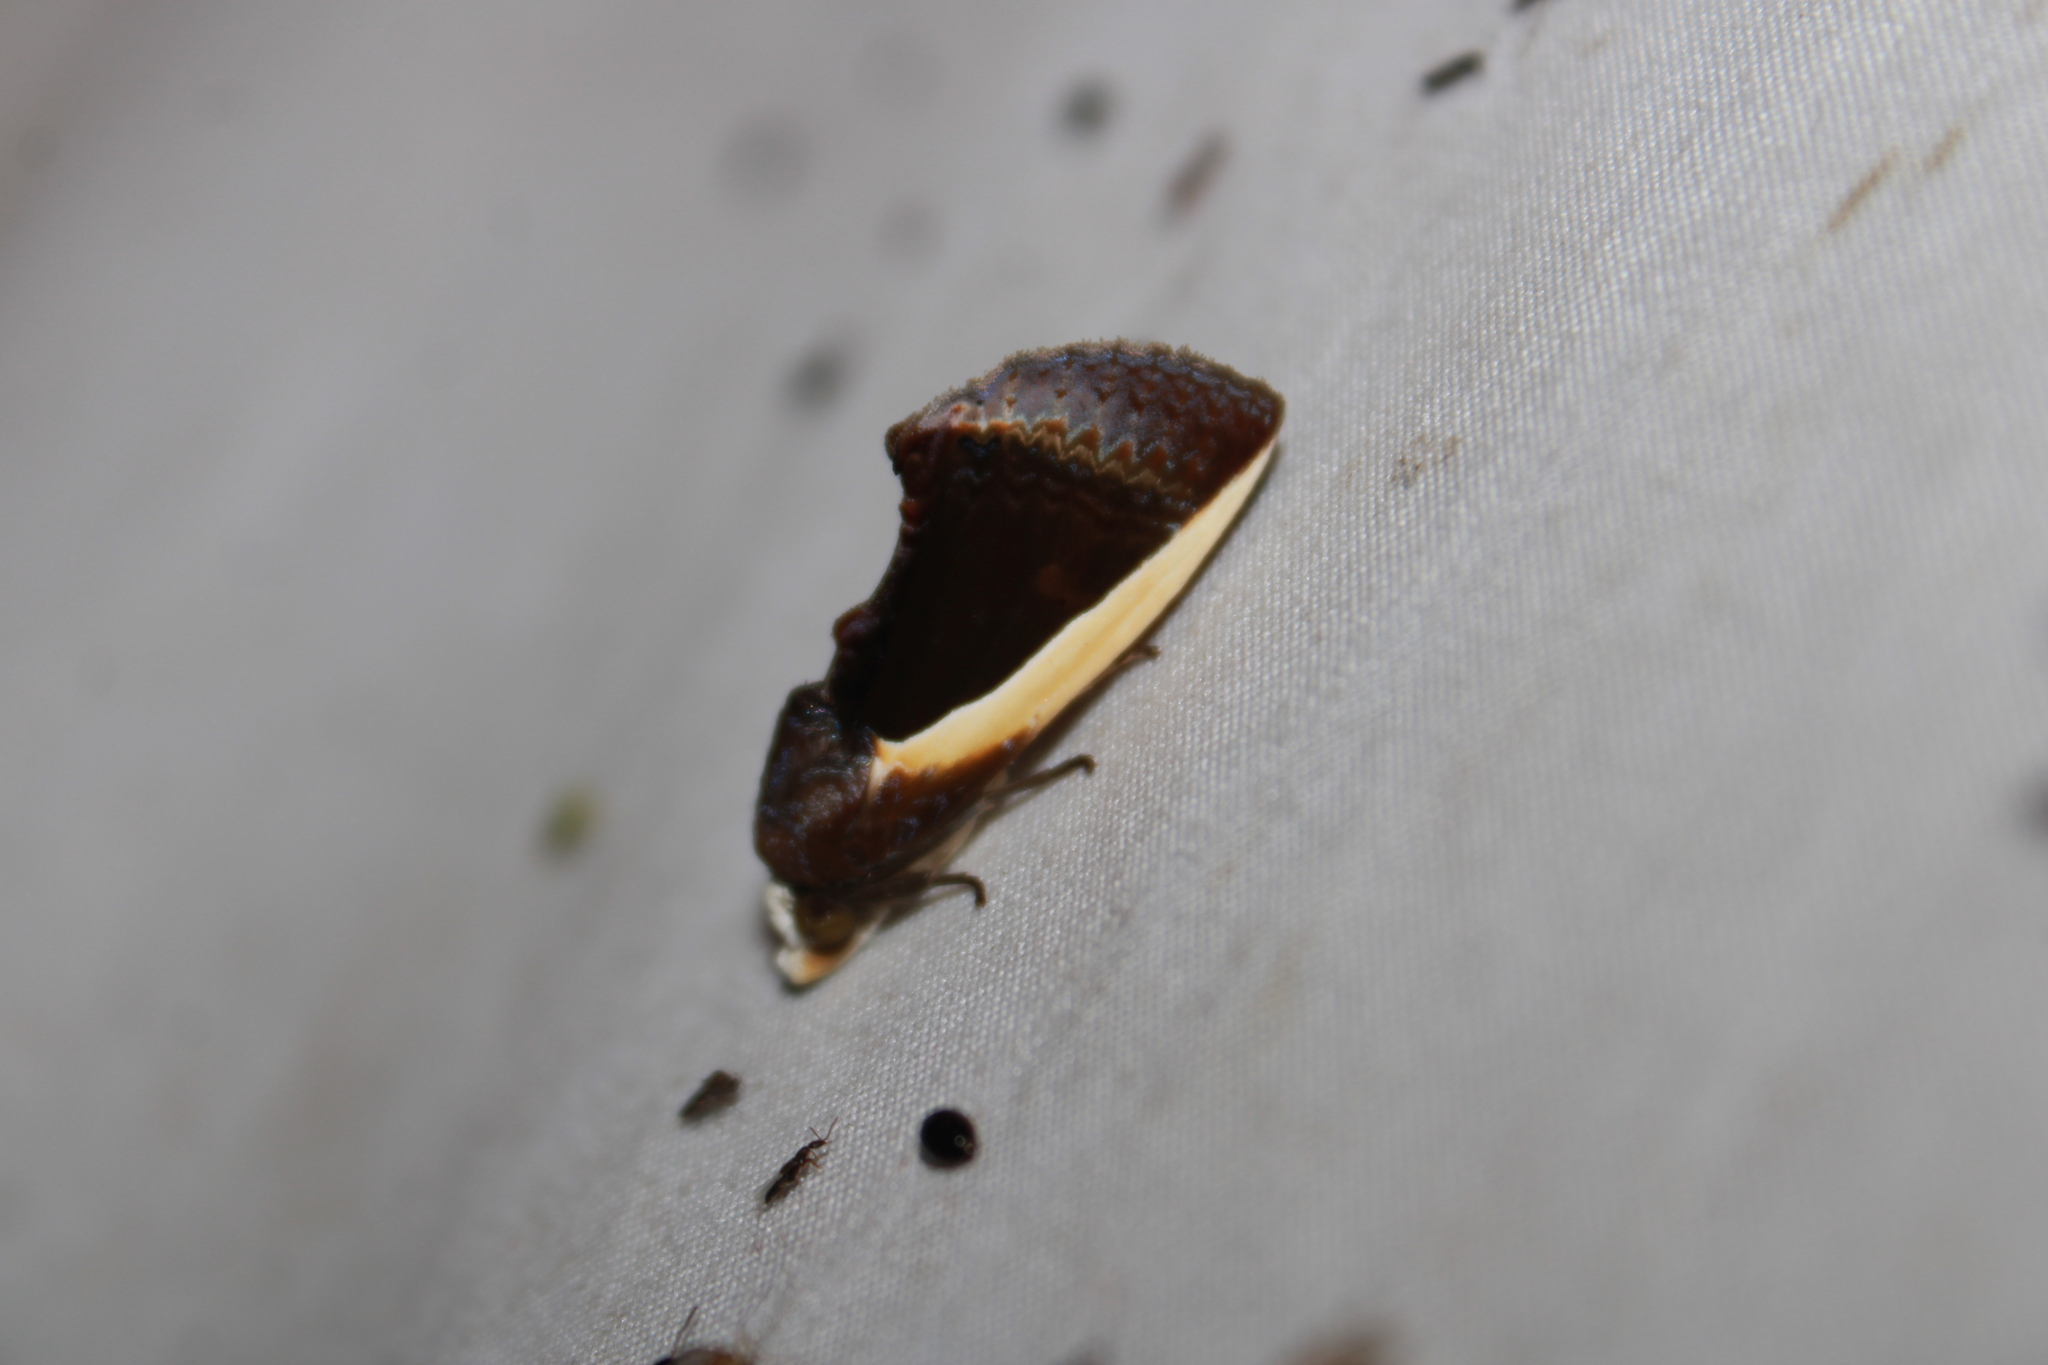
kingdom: Animalia
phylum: Arthropoda
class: Insecta
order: Lepidoptera
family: Erebidae
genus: Gonodonta
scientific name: Gonodonta nutrix
